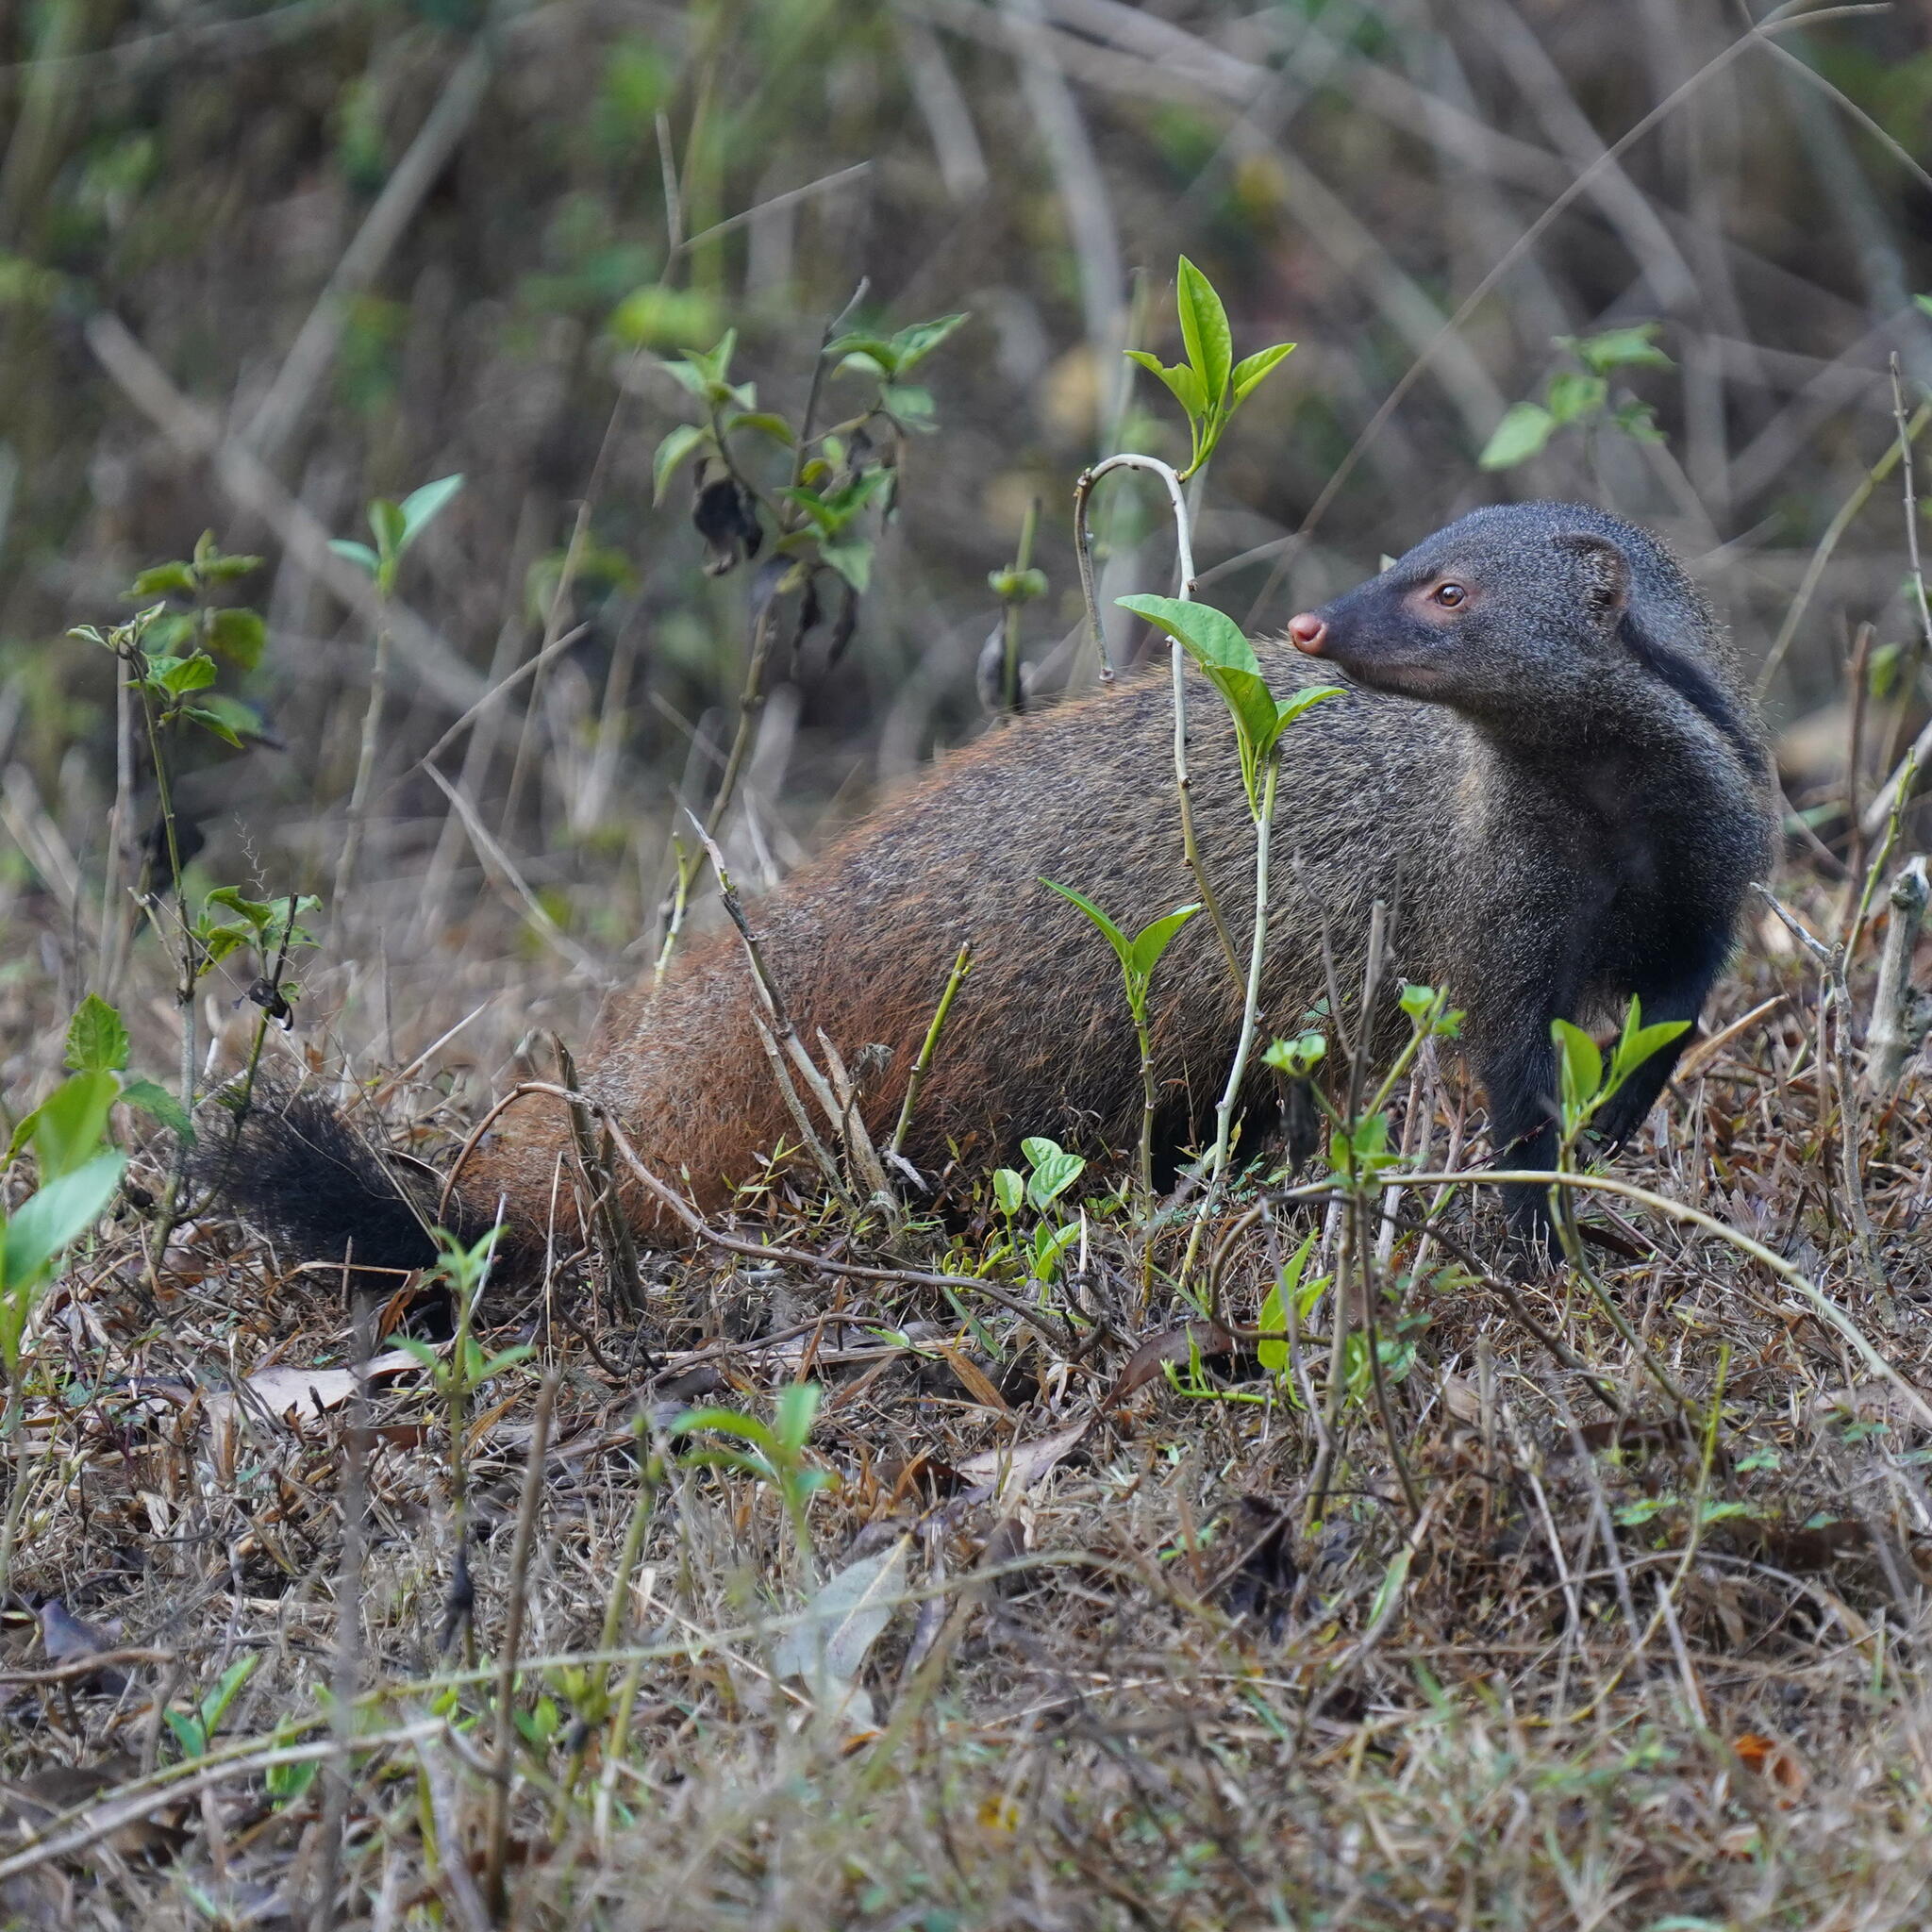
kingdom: Animalia
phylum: Chordata
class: Mammalia
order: Carnivora
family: Herpestidae
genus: Herpestes
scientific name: Herpestes vitticollis
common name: Stripe-necked mongoose
